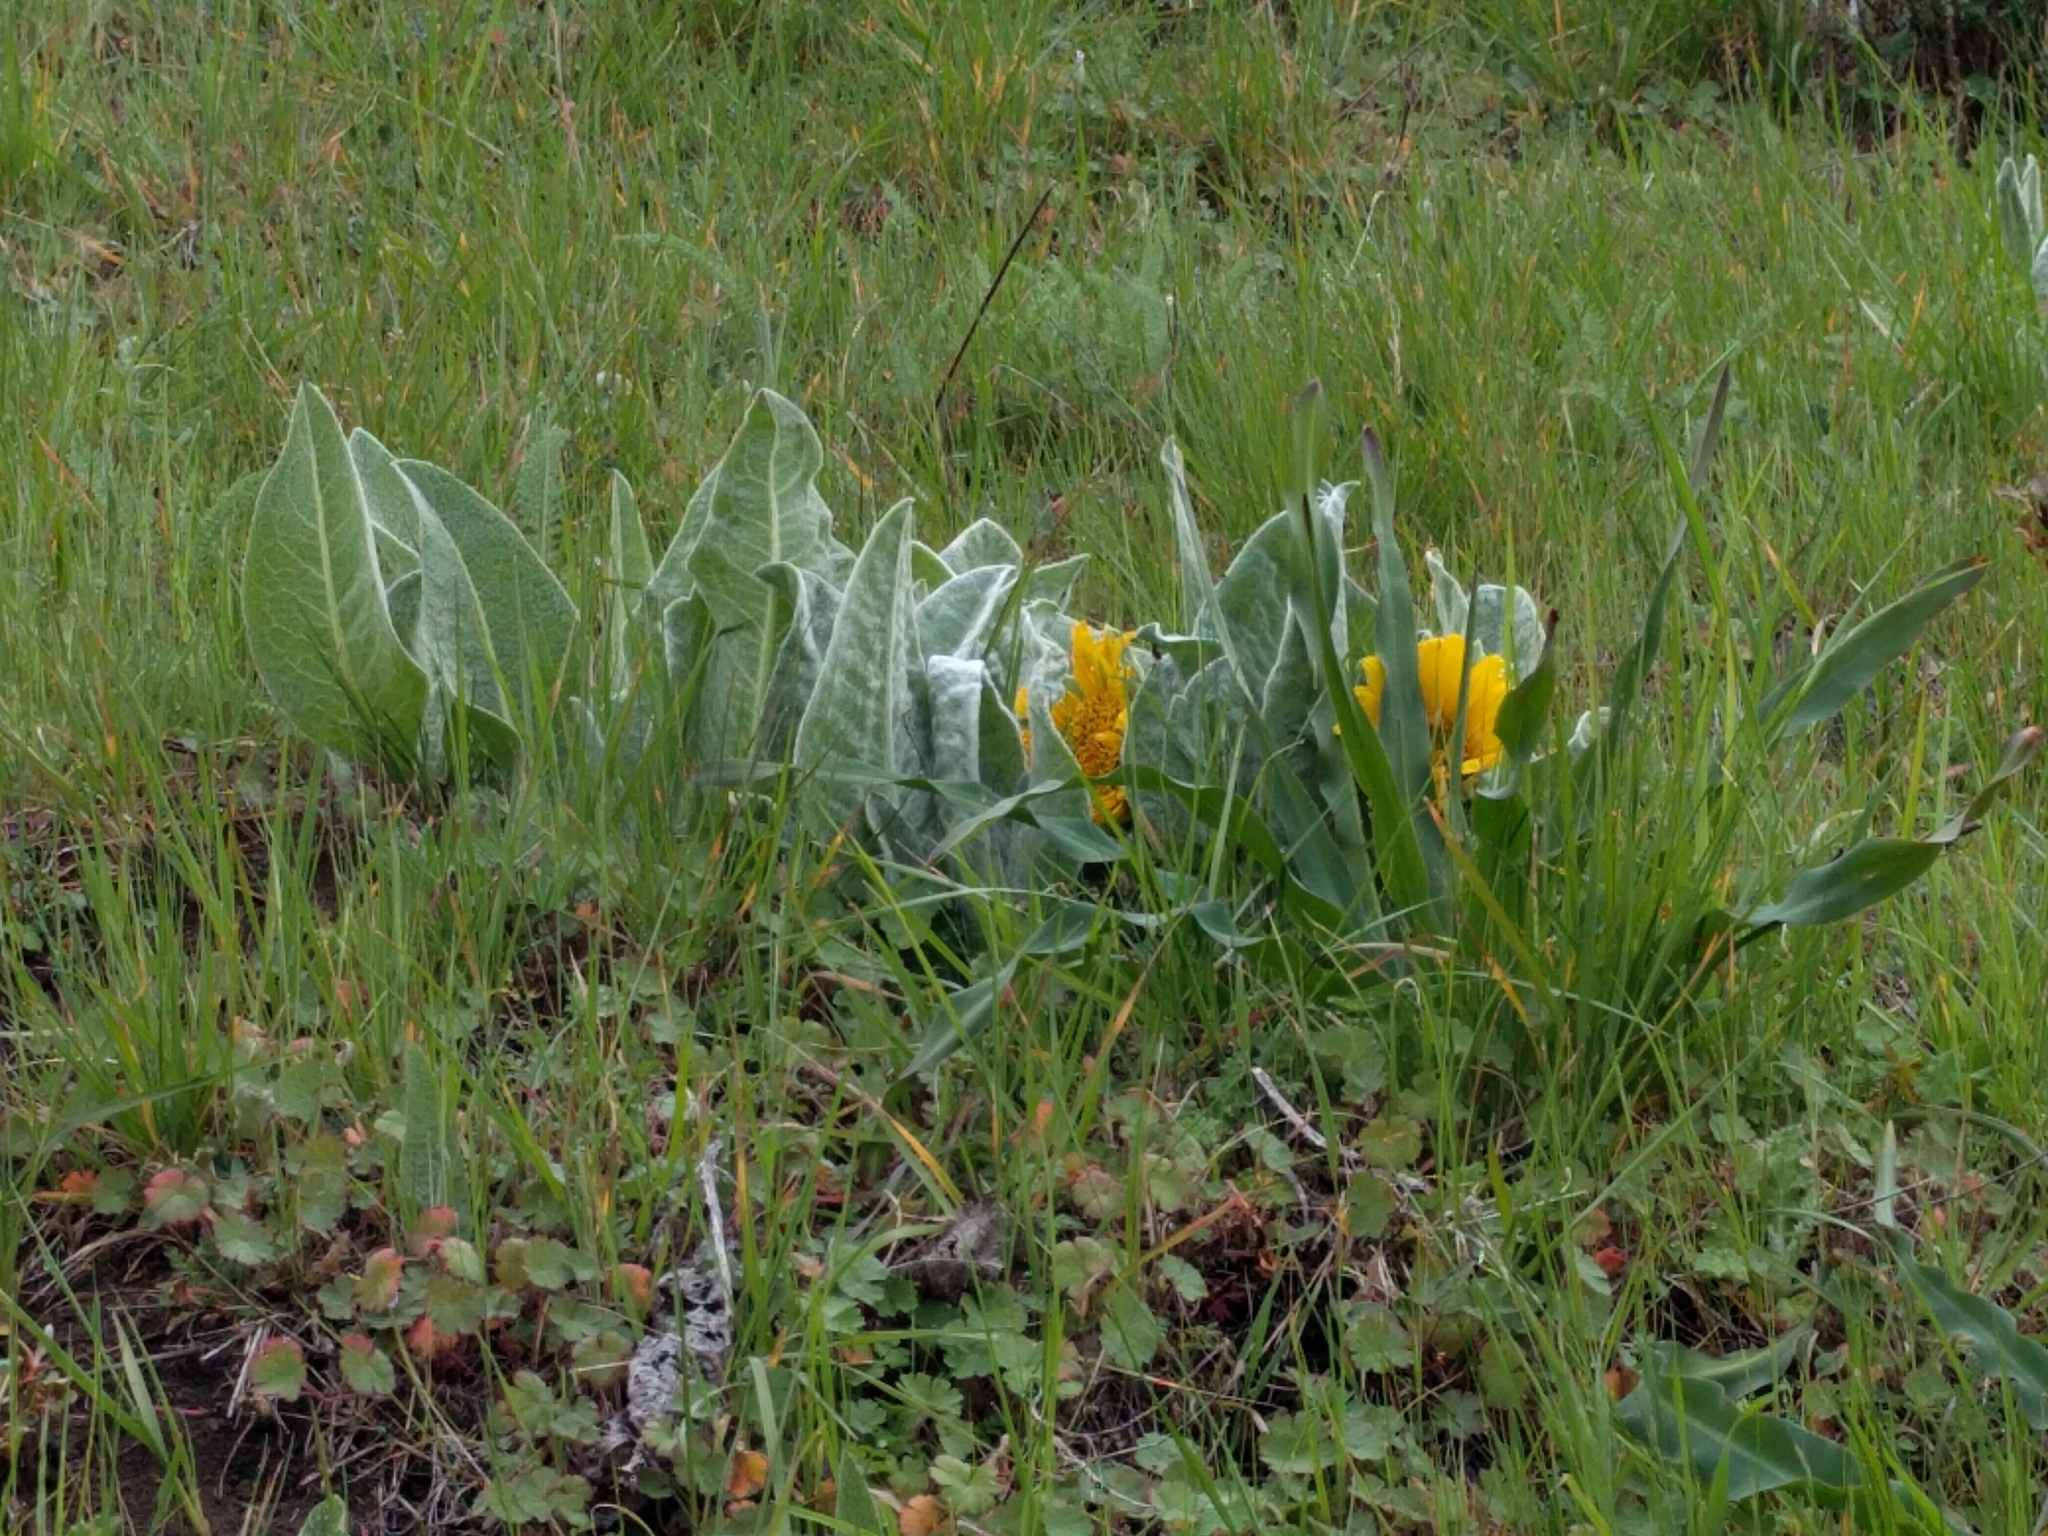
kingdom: Plantae
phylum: Tracheophyta
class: Magnoliopsida
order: Asterales
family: Asteraceae
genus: Wyethia
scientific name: Wyethia helenioides
